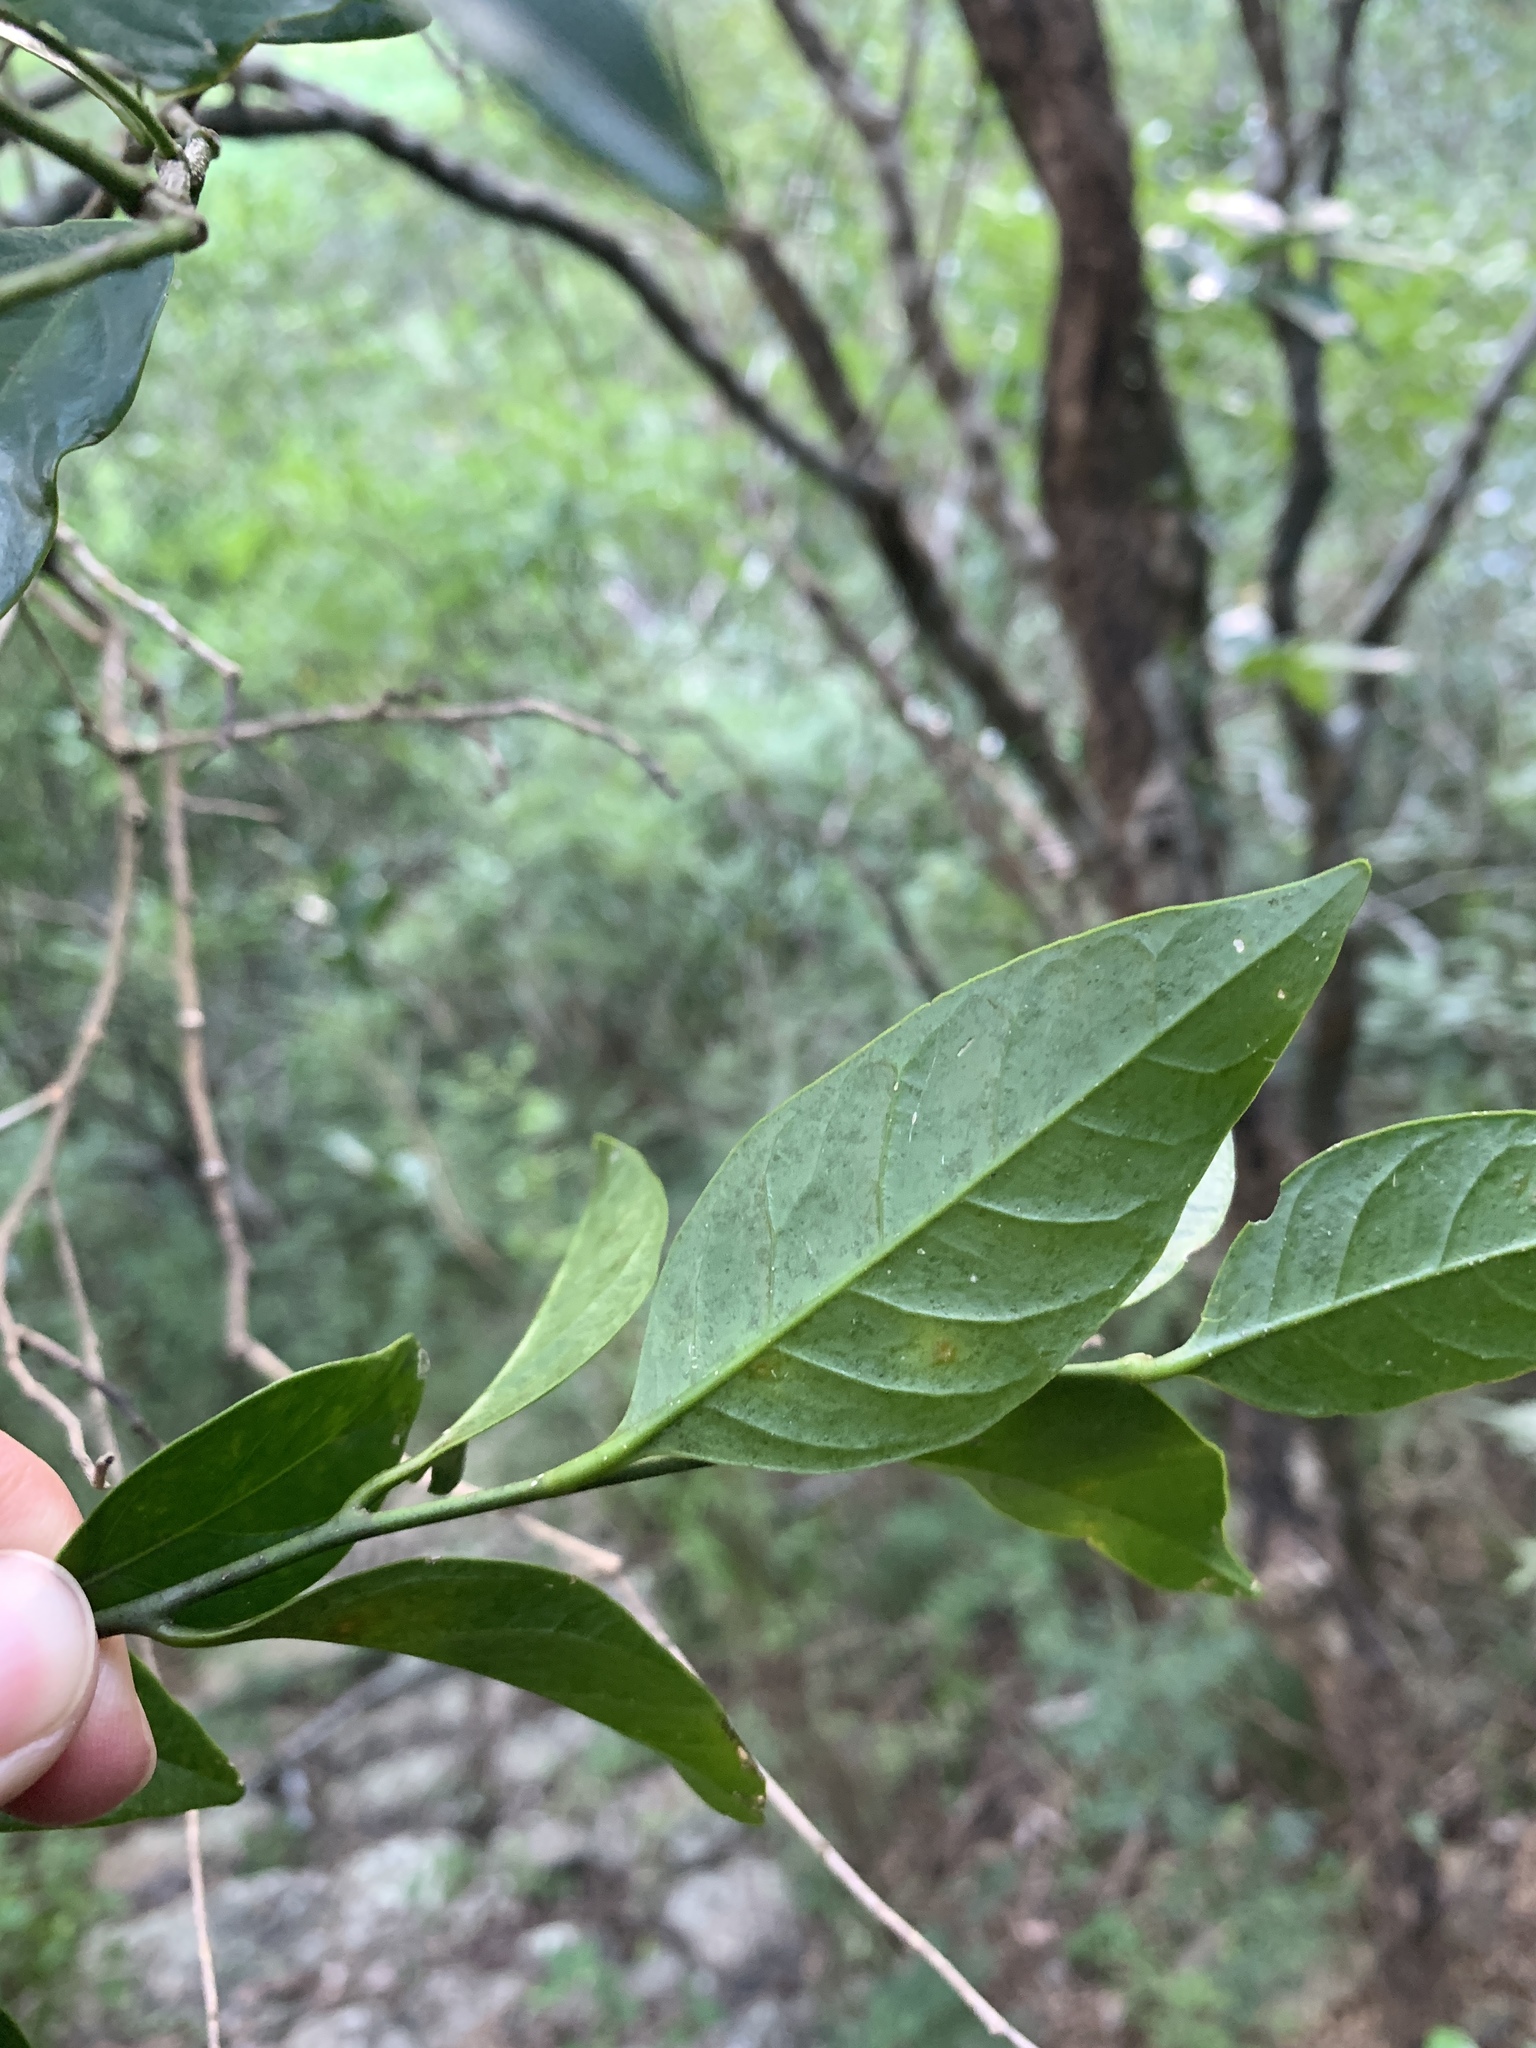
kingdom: Plantae
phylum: Tracheophyta
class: Magnoliopsida
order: Santalales
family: Opiliaceae
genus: Champereia
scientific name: Champereia manillana
